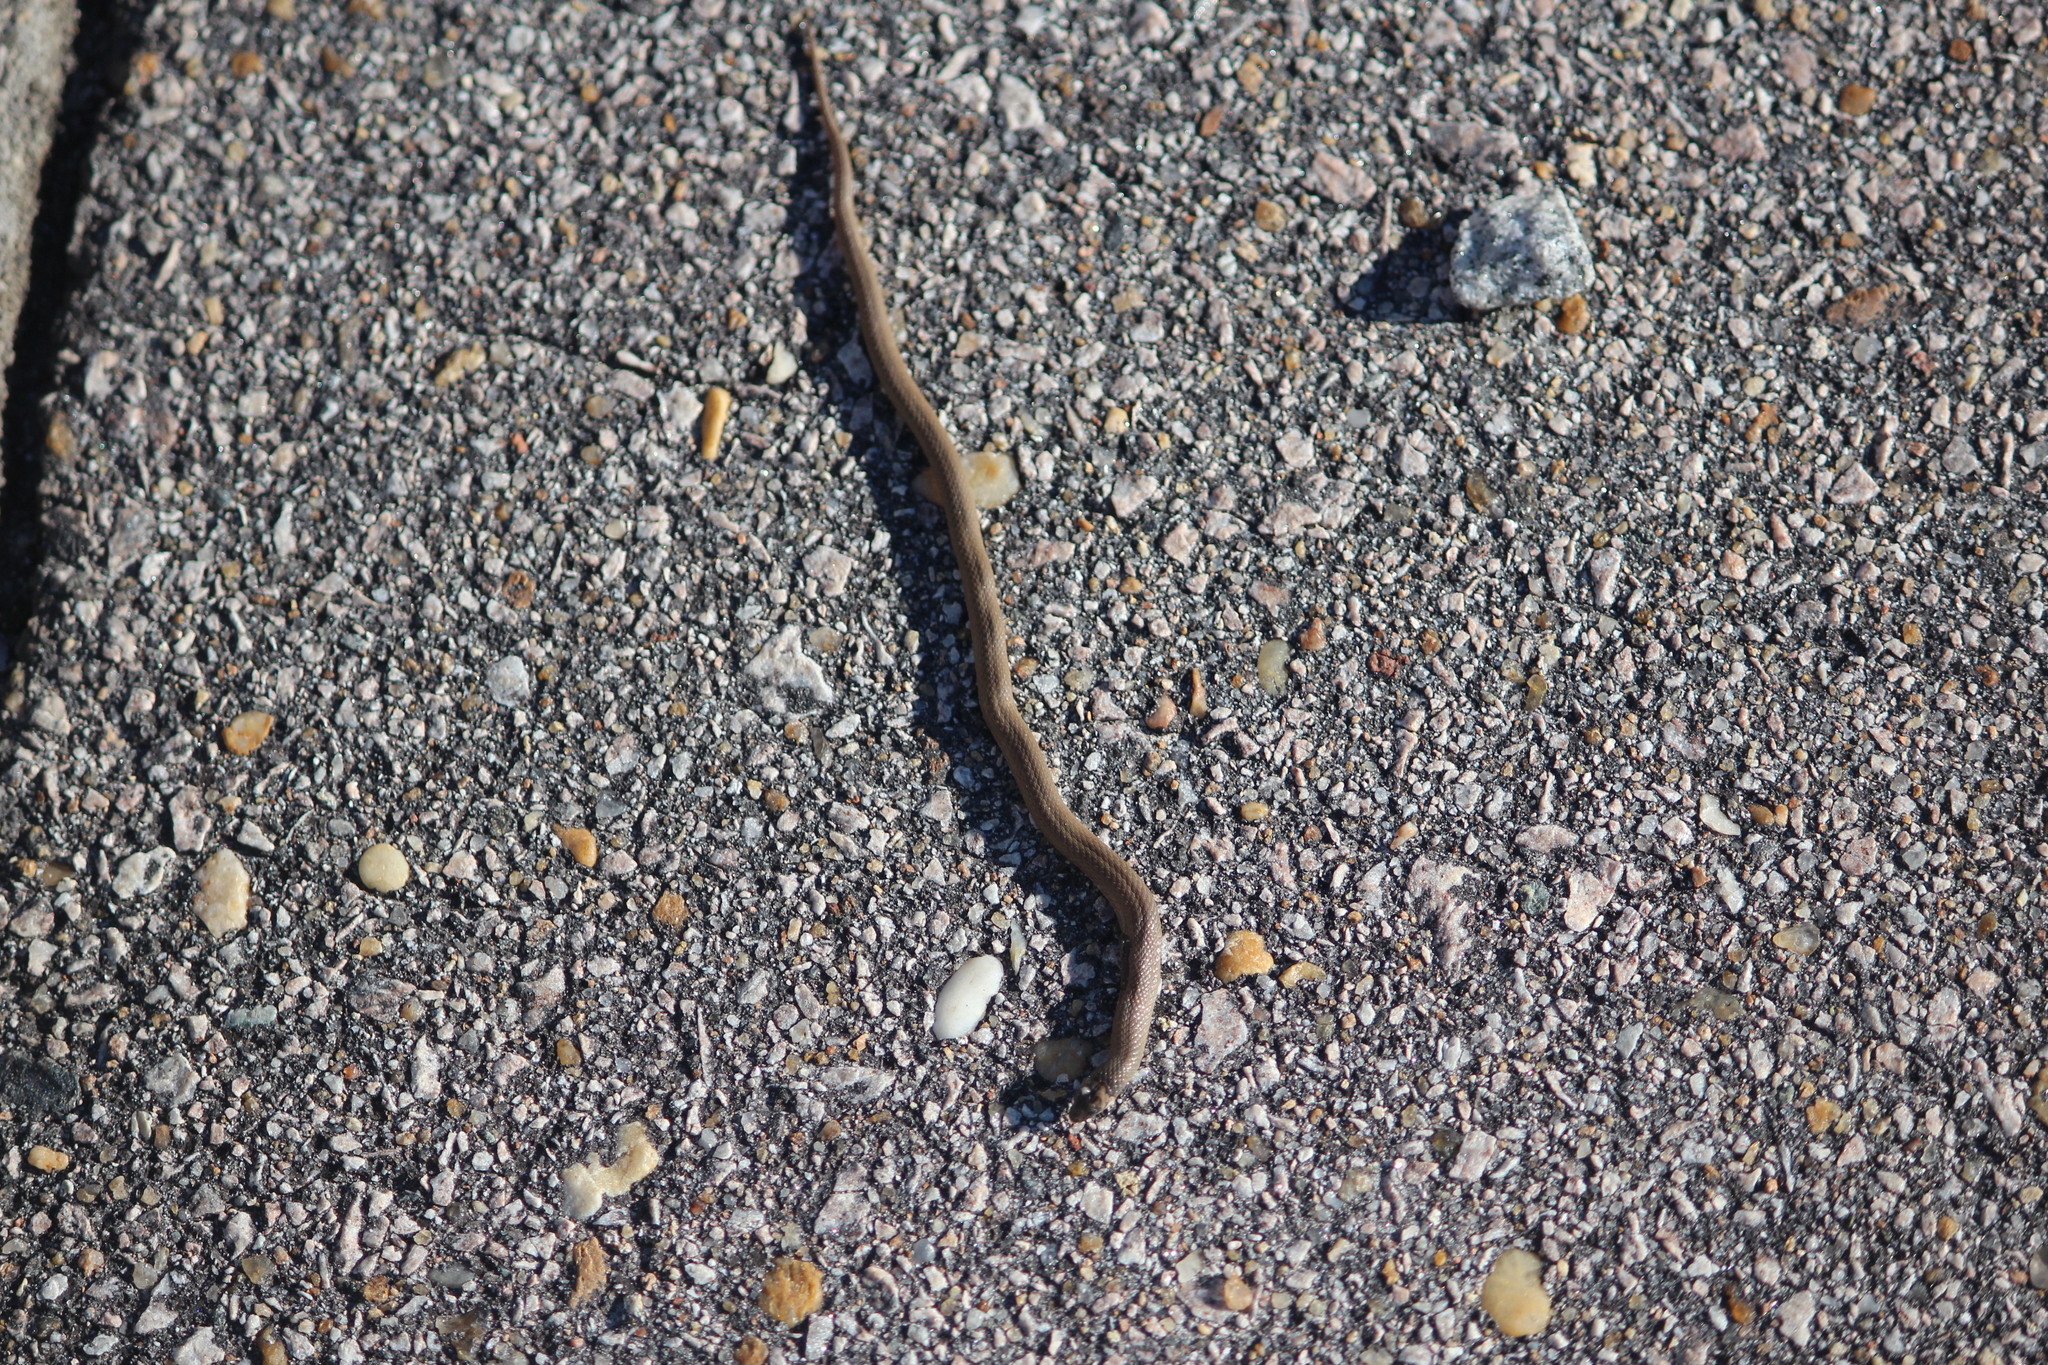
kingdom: Animalia
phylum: Chordata
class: Squamata
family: Colubridae
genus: Haldea
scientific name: Haldea striatula
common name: Rough earth snake
